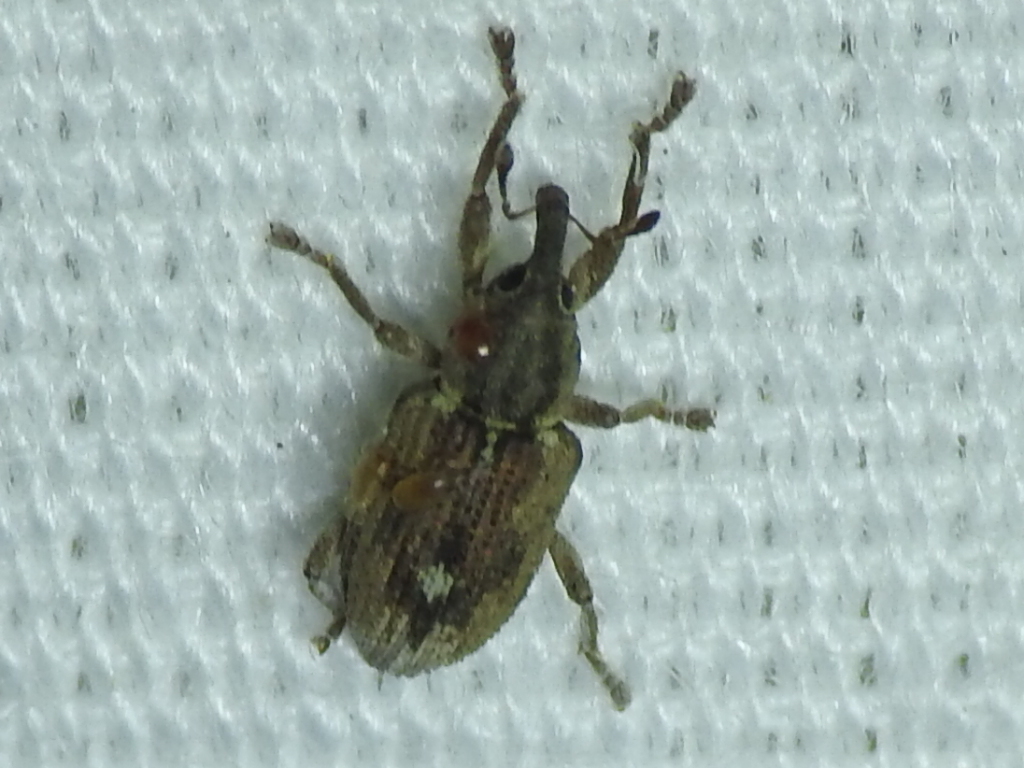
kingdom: Animalia
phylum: Arthropoda
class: Insecta
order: Coleoptera
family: Brachyceridae
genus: Endalus
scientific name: Endalus aeratus
